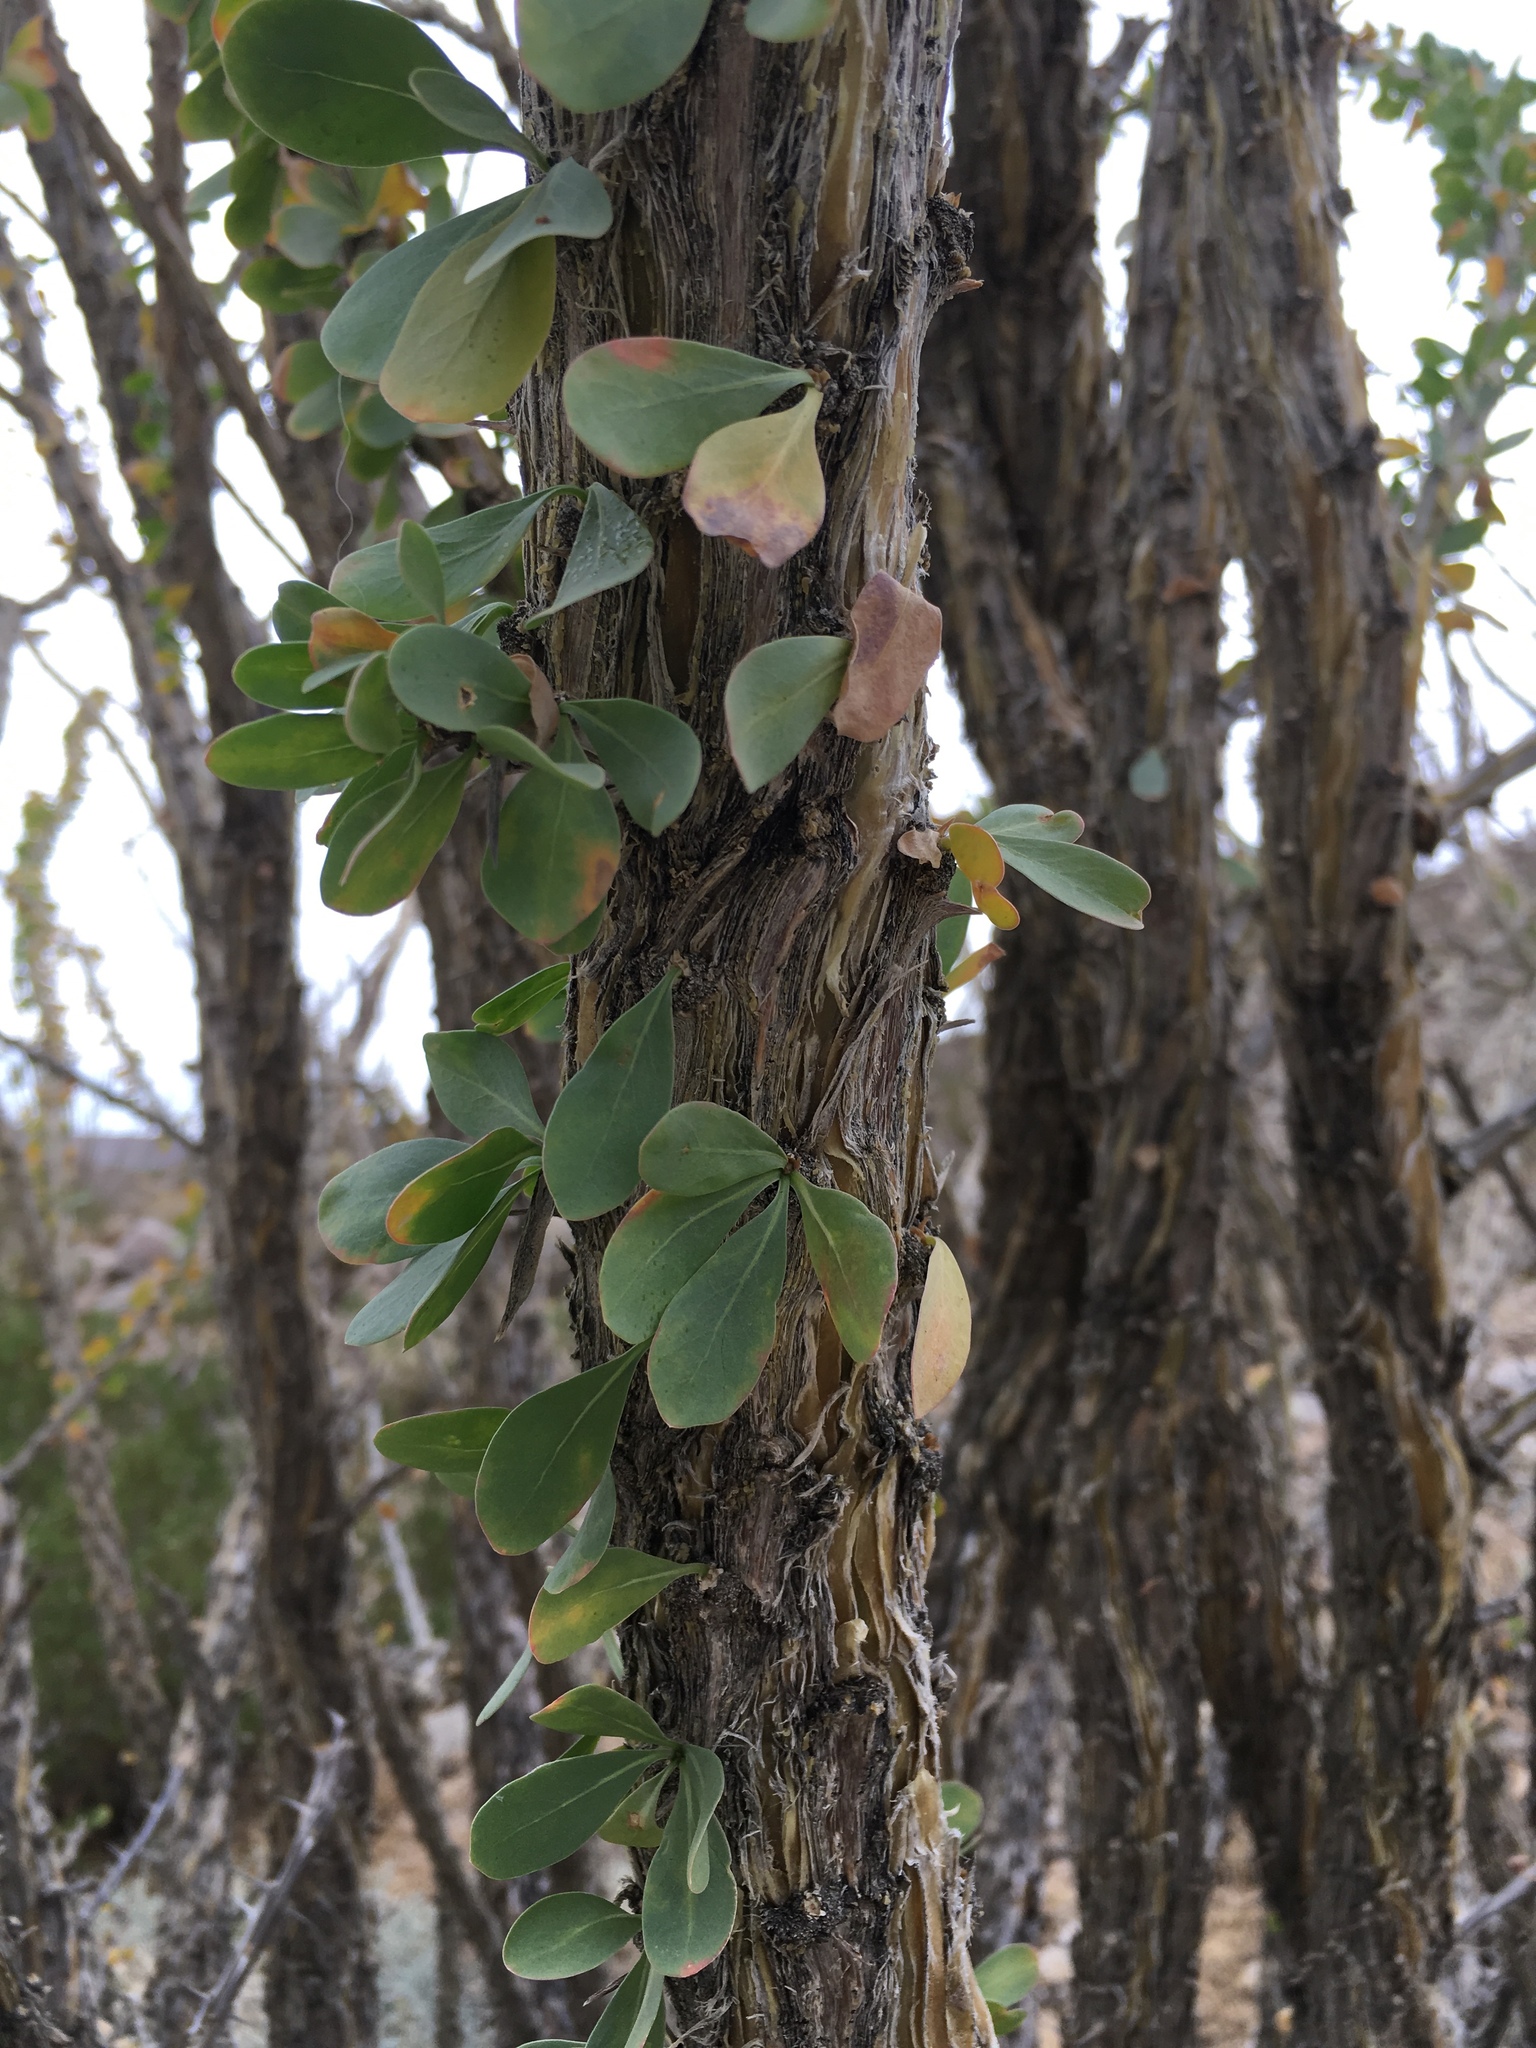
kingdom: Plantae
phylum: Tracheophyta
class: Magnoliopsida
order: Ericales
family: Fouquieriaceae
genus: Fouquieria
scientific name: Fouquieria splendens
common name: Vine-cactus
